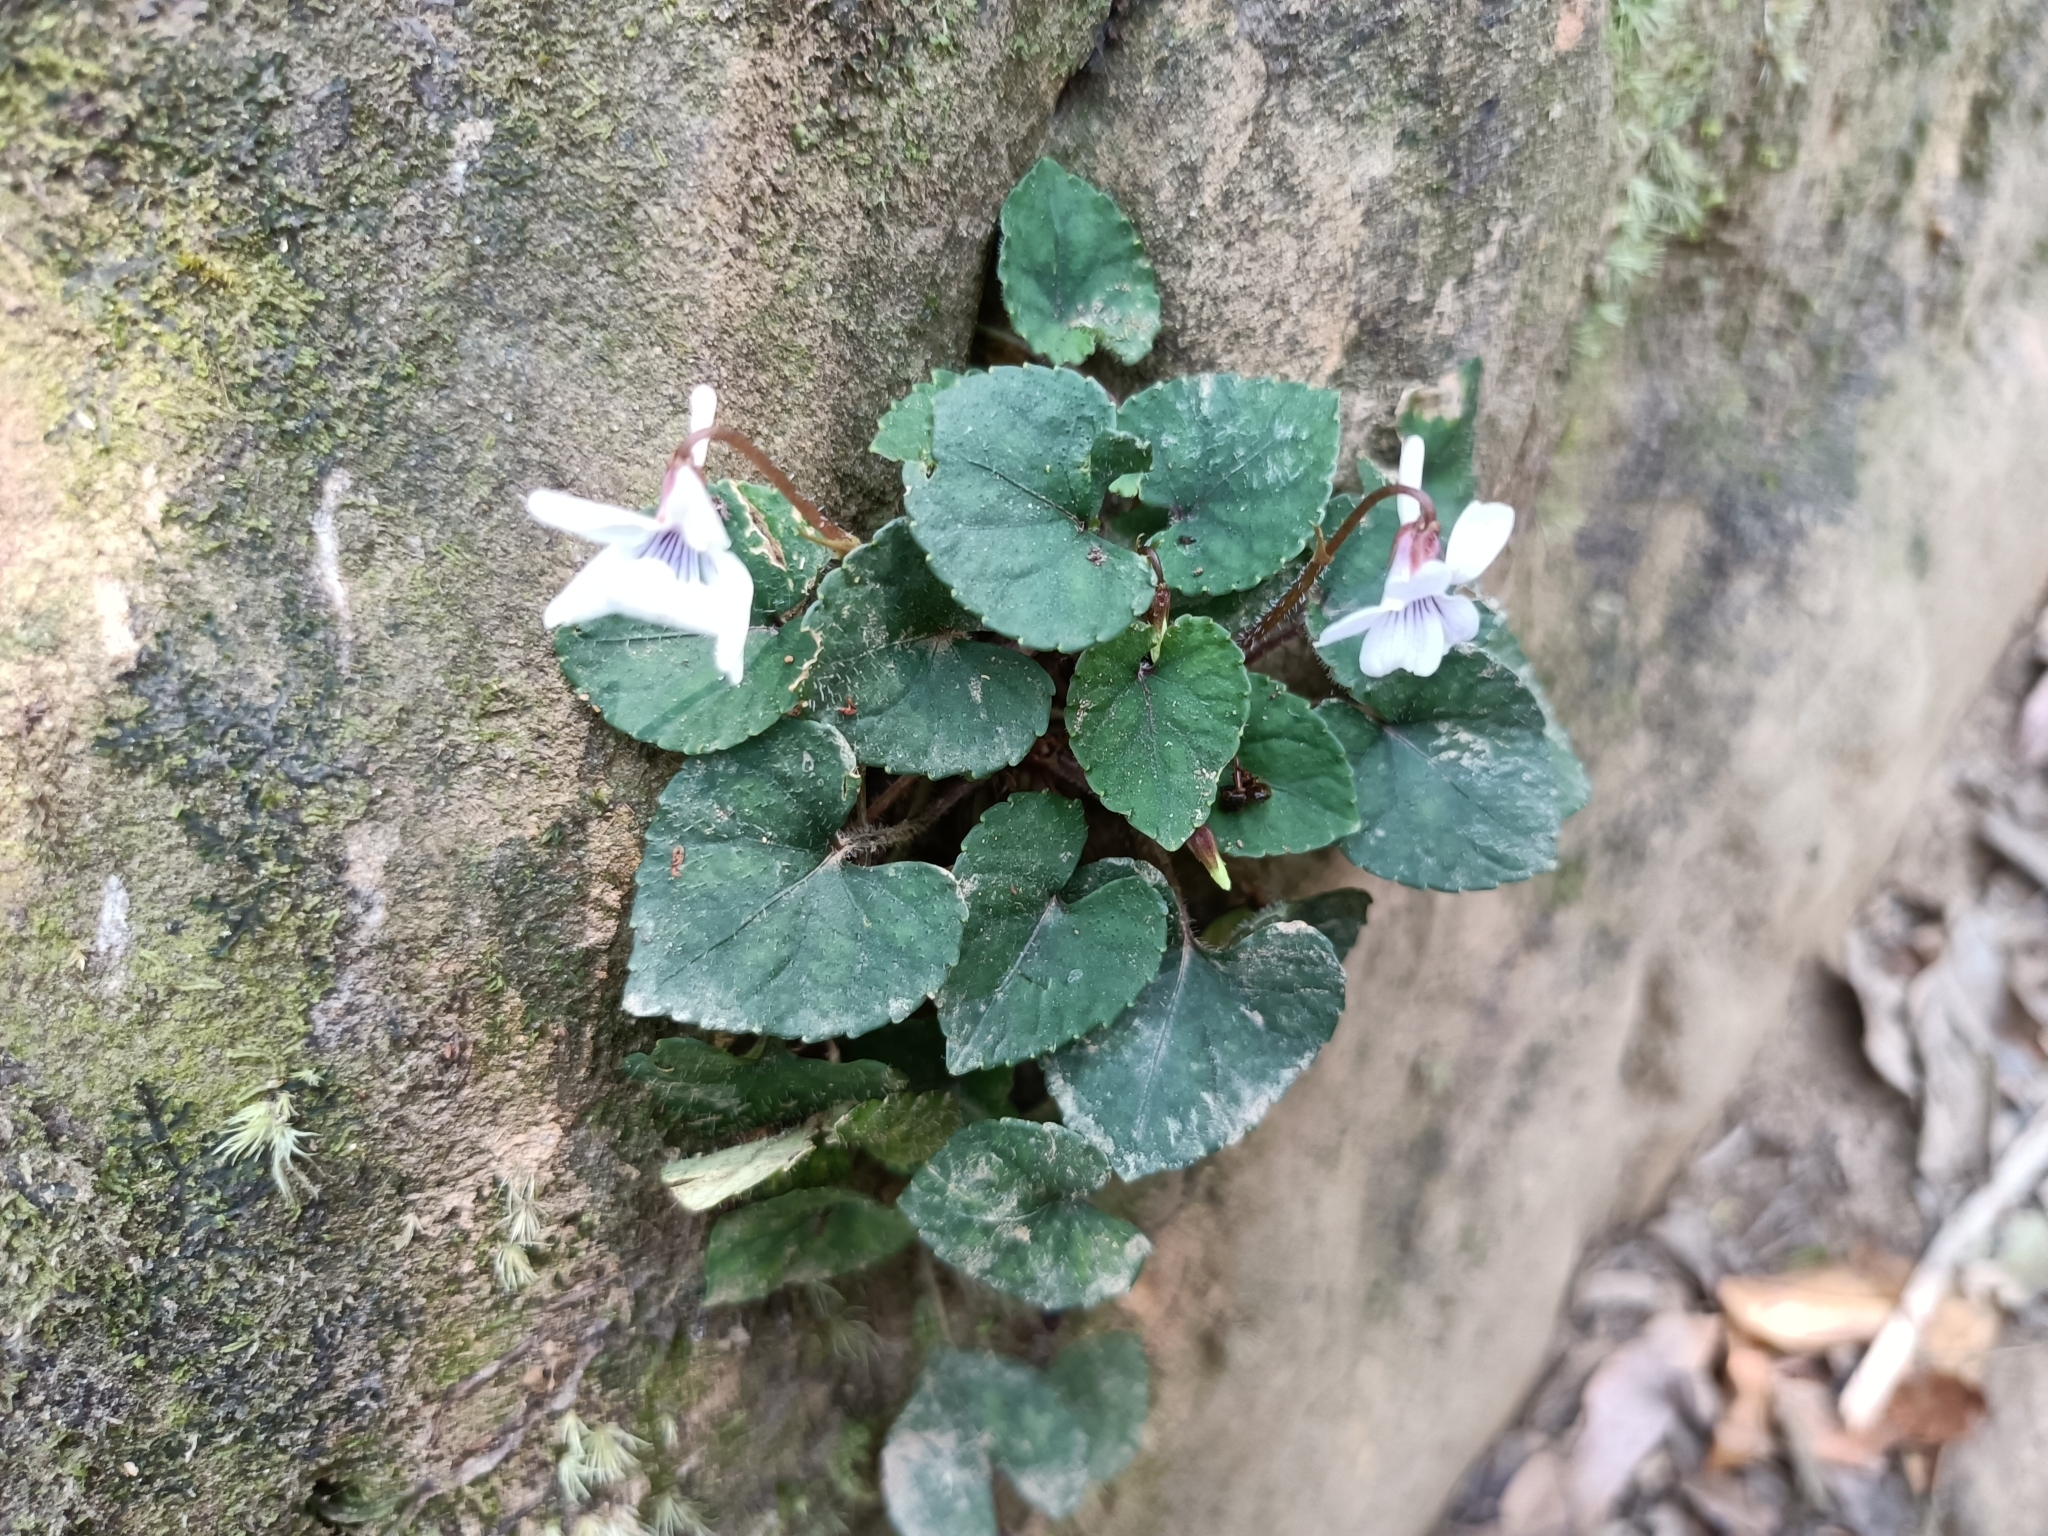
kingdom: Plantae
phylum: Tracheophyta
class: Magnoliopsida
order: Malpighiales
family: Violaceae
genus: Viola
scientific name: Viola formosana
